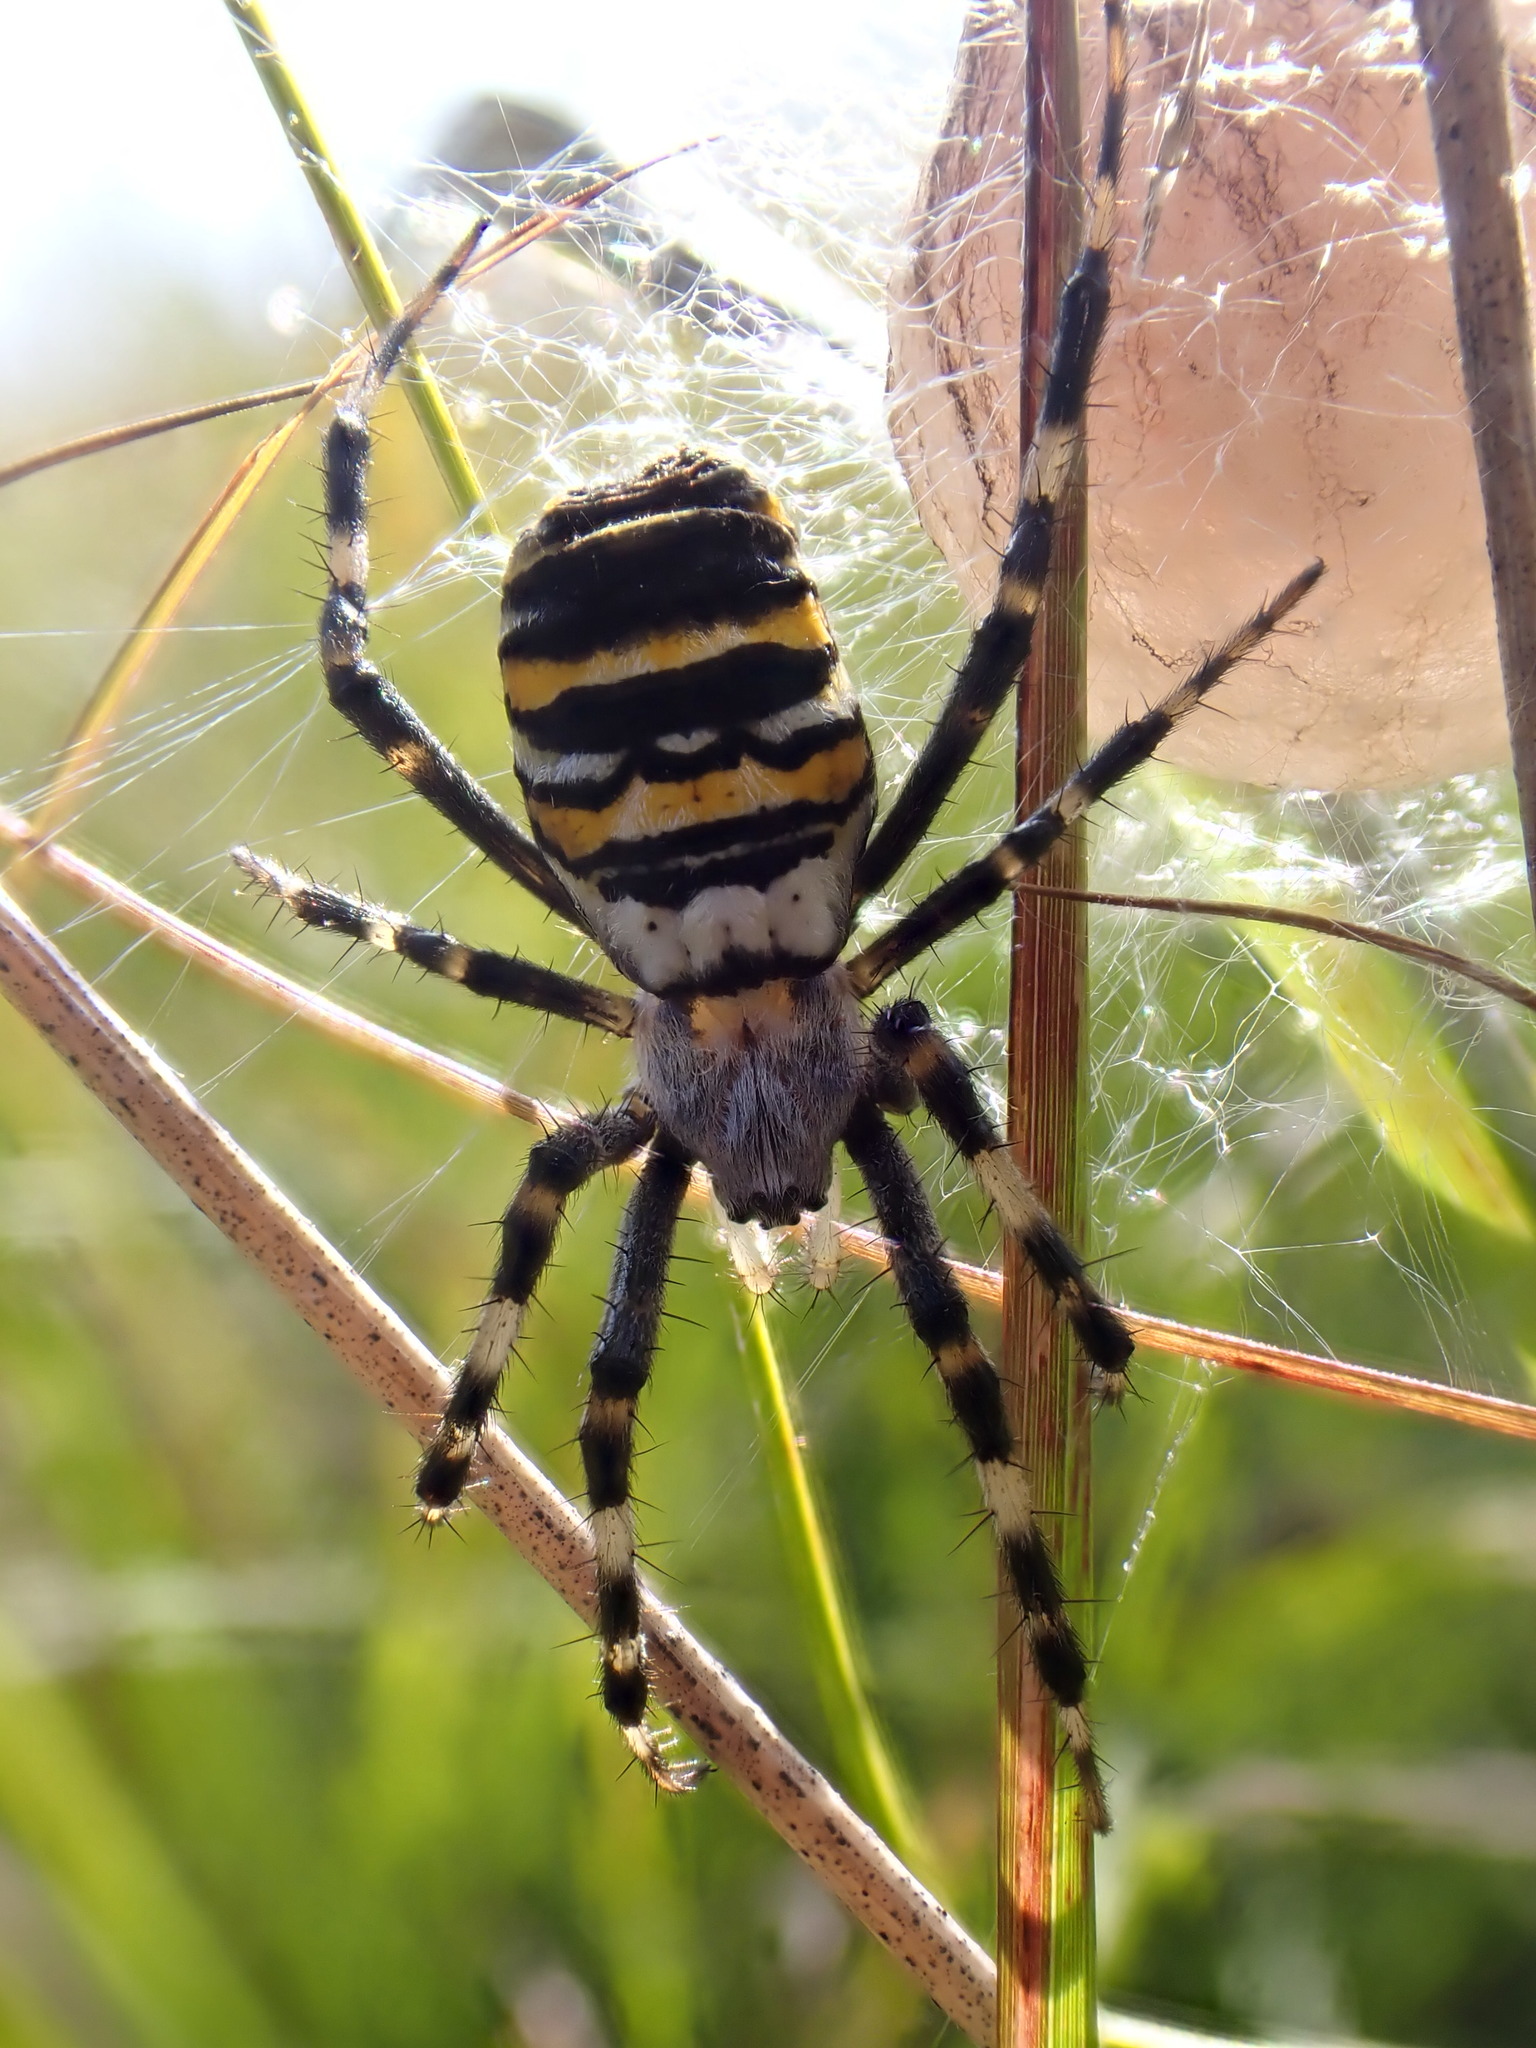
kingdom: Animalia
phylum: Arthropoda
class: Arachnida
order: Araneae
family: Araneidae
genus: Argiope
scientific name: Argiope bruennichi
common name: Wasp spider
